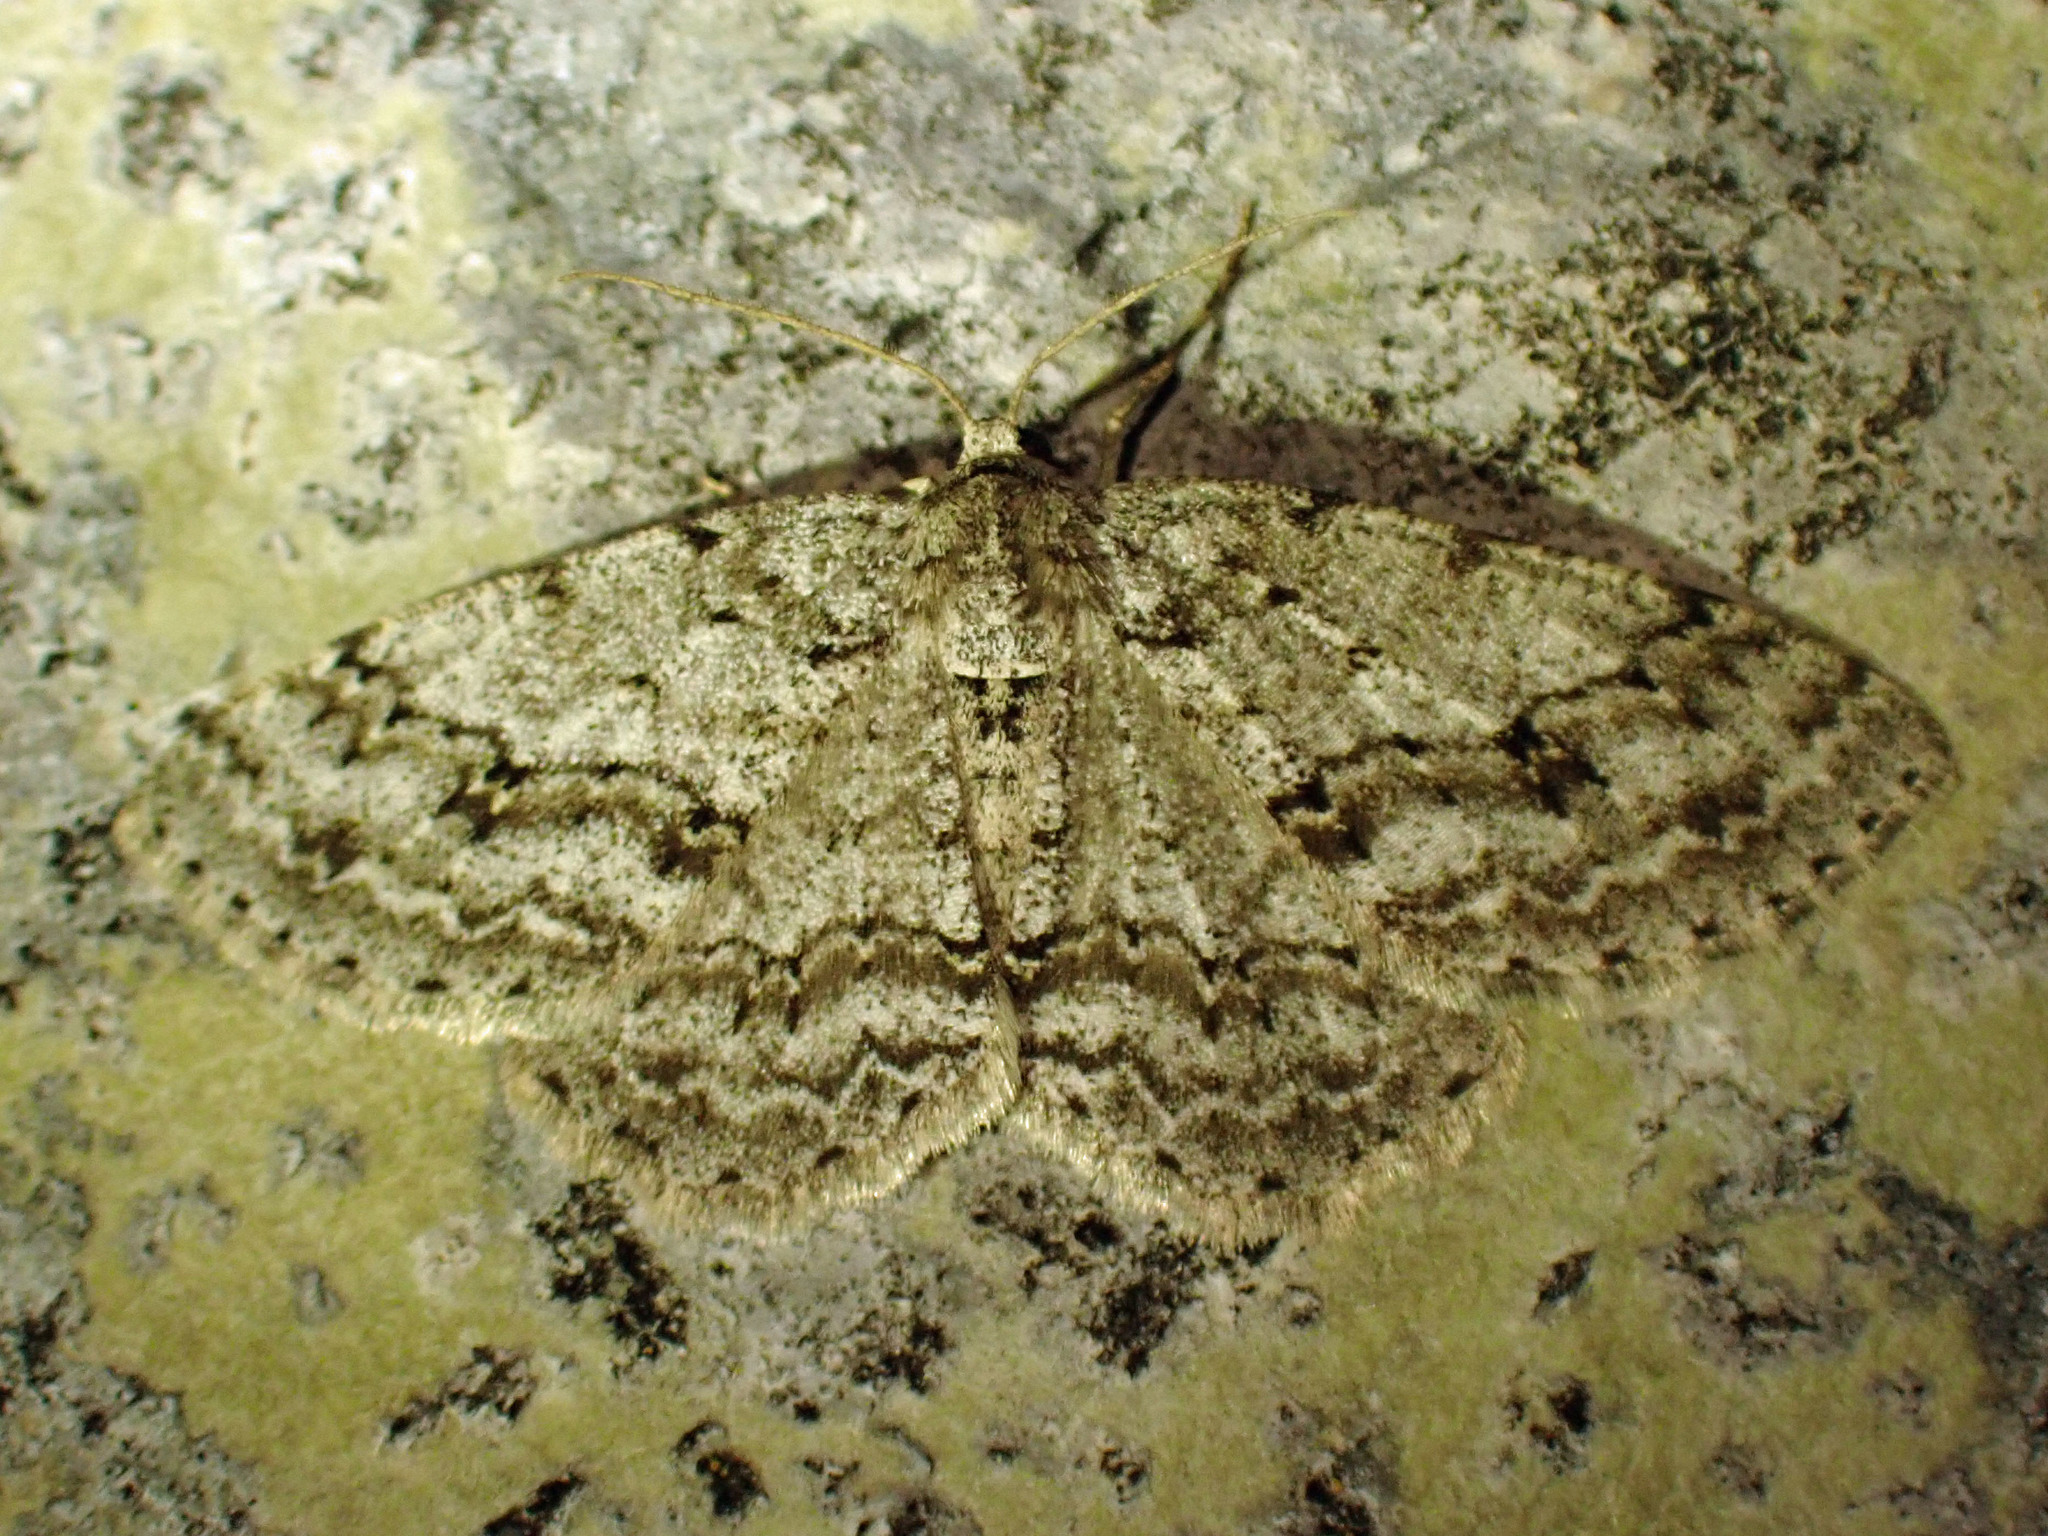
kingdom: Animalia
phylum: Arthropoda
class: Insecta
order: Lepidoptera
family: Geometridae
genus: Ectropis
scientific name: Ectropis crepuscularia
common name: Engrailed
